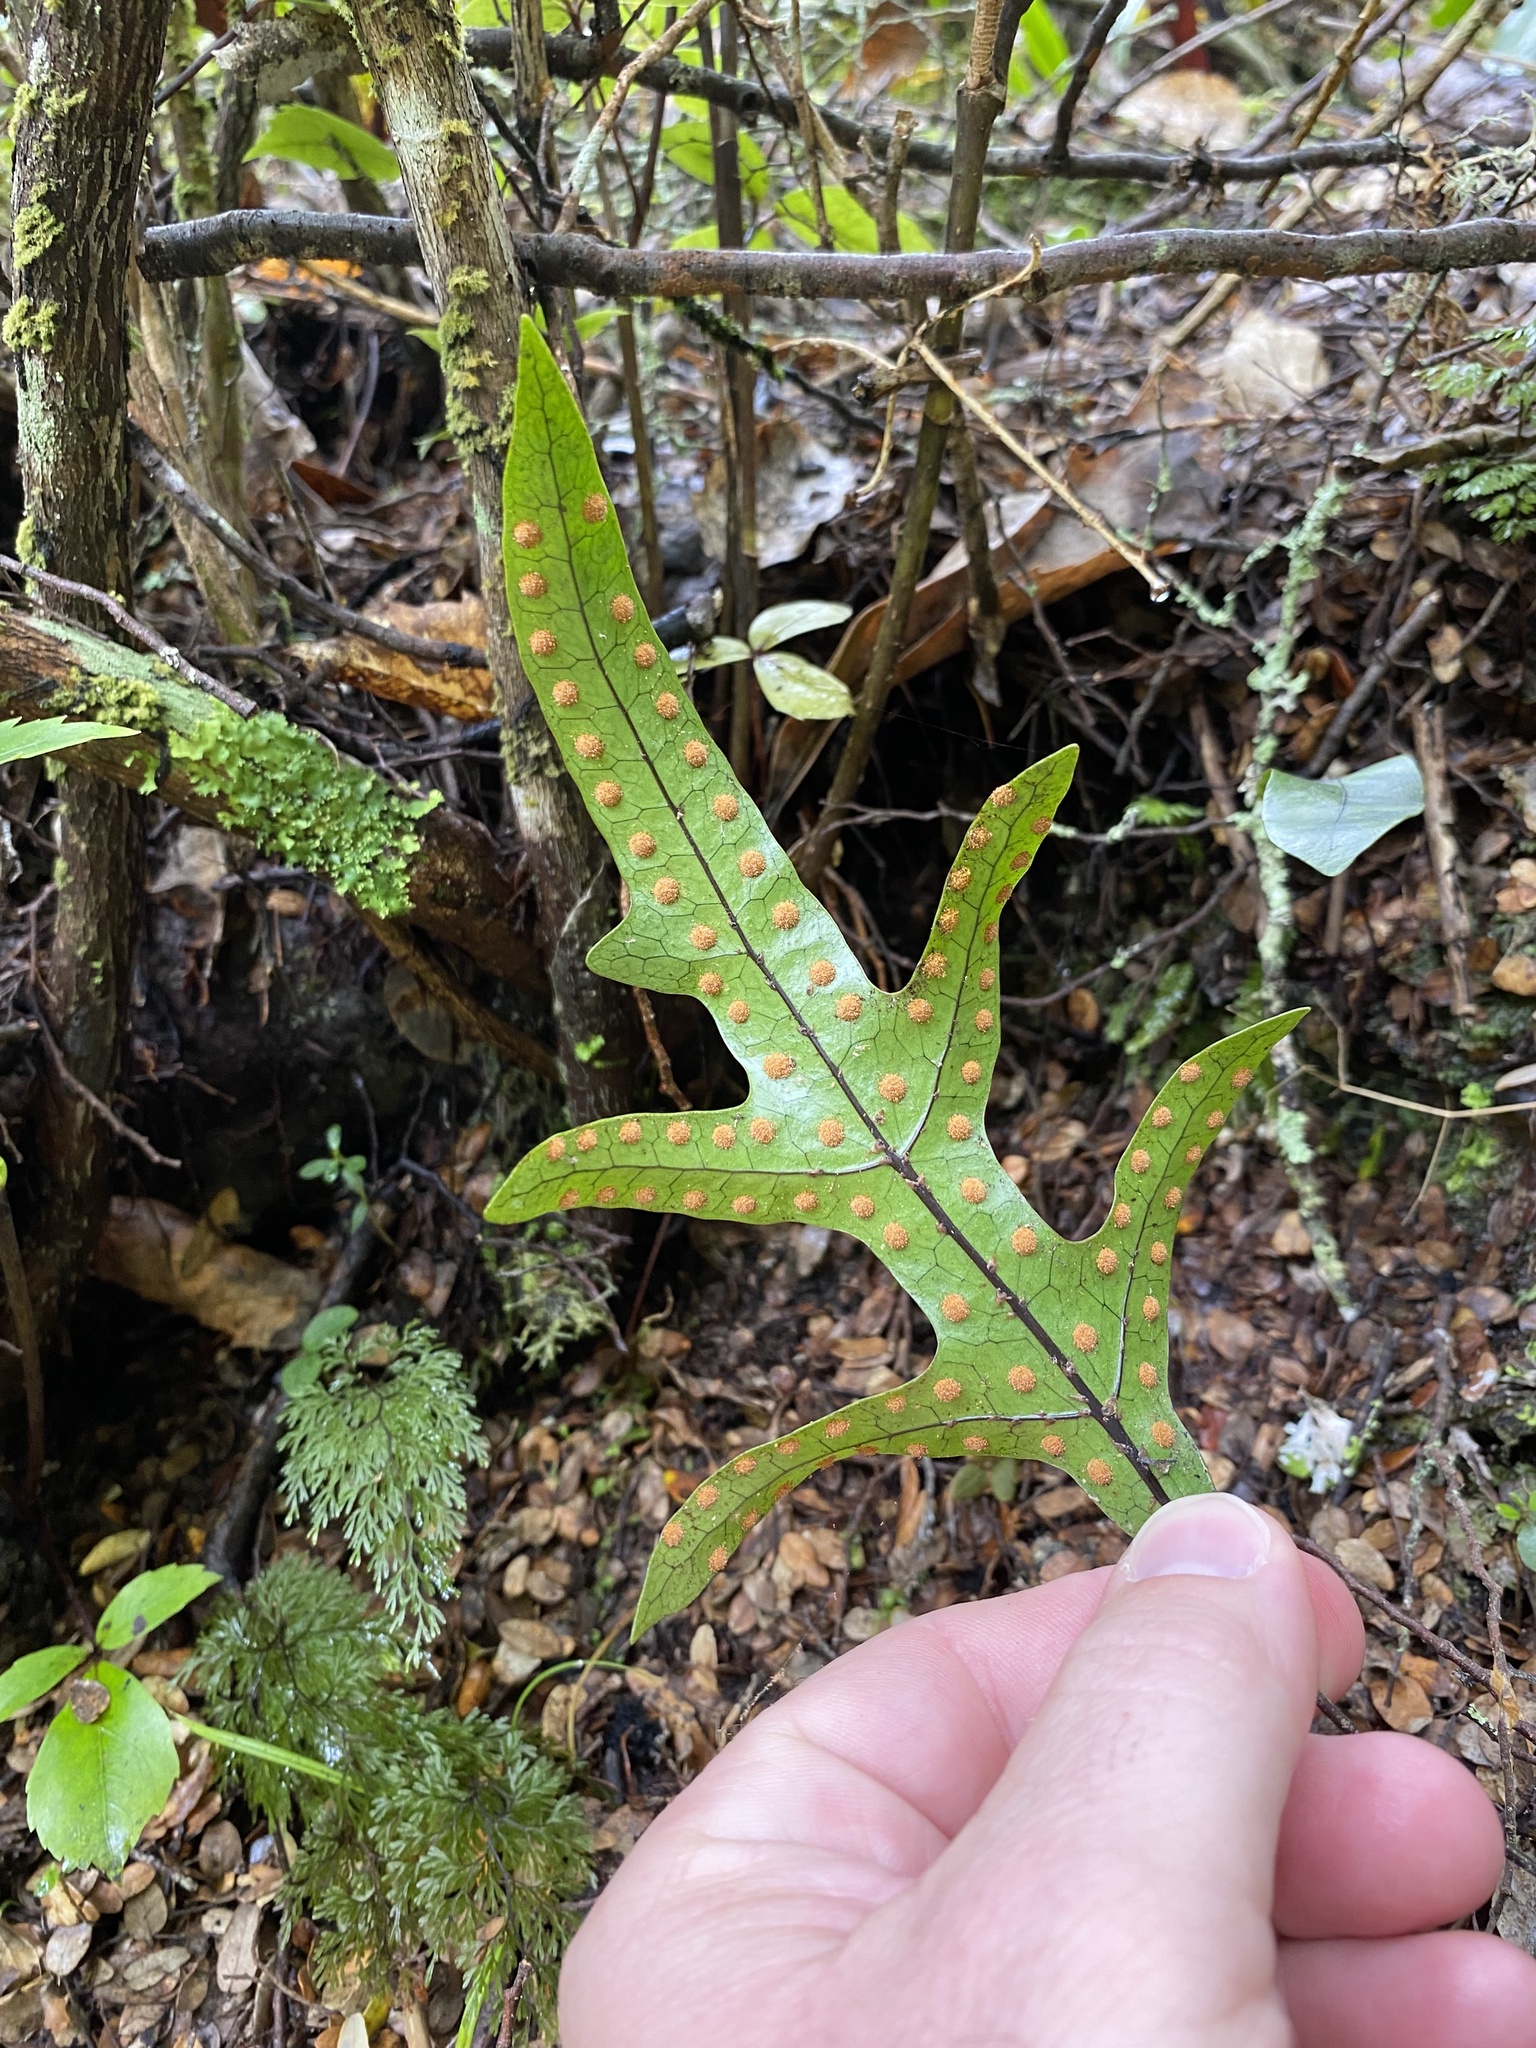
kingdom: Plantae
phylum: Tracheophyta
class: Polypodiopsida
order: Polypodiales
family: Polypodiaceae
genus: Lecanopteris
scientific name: Lecanopteris pustulata
